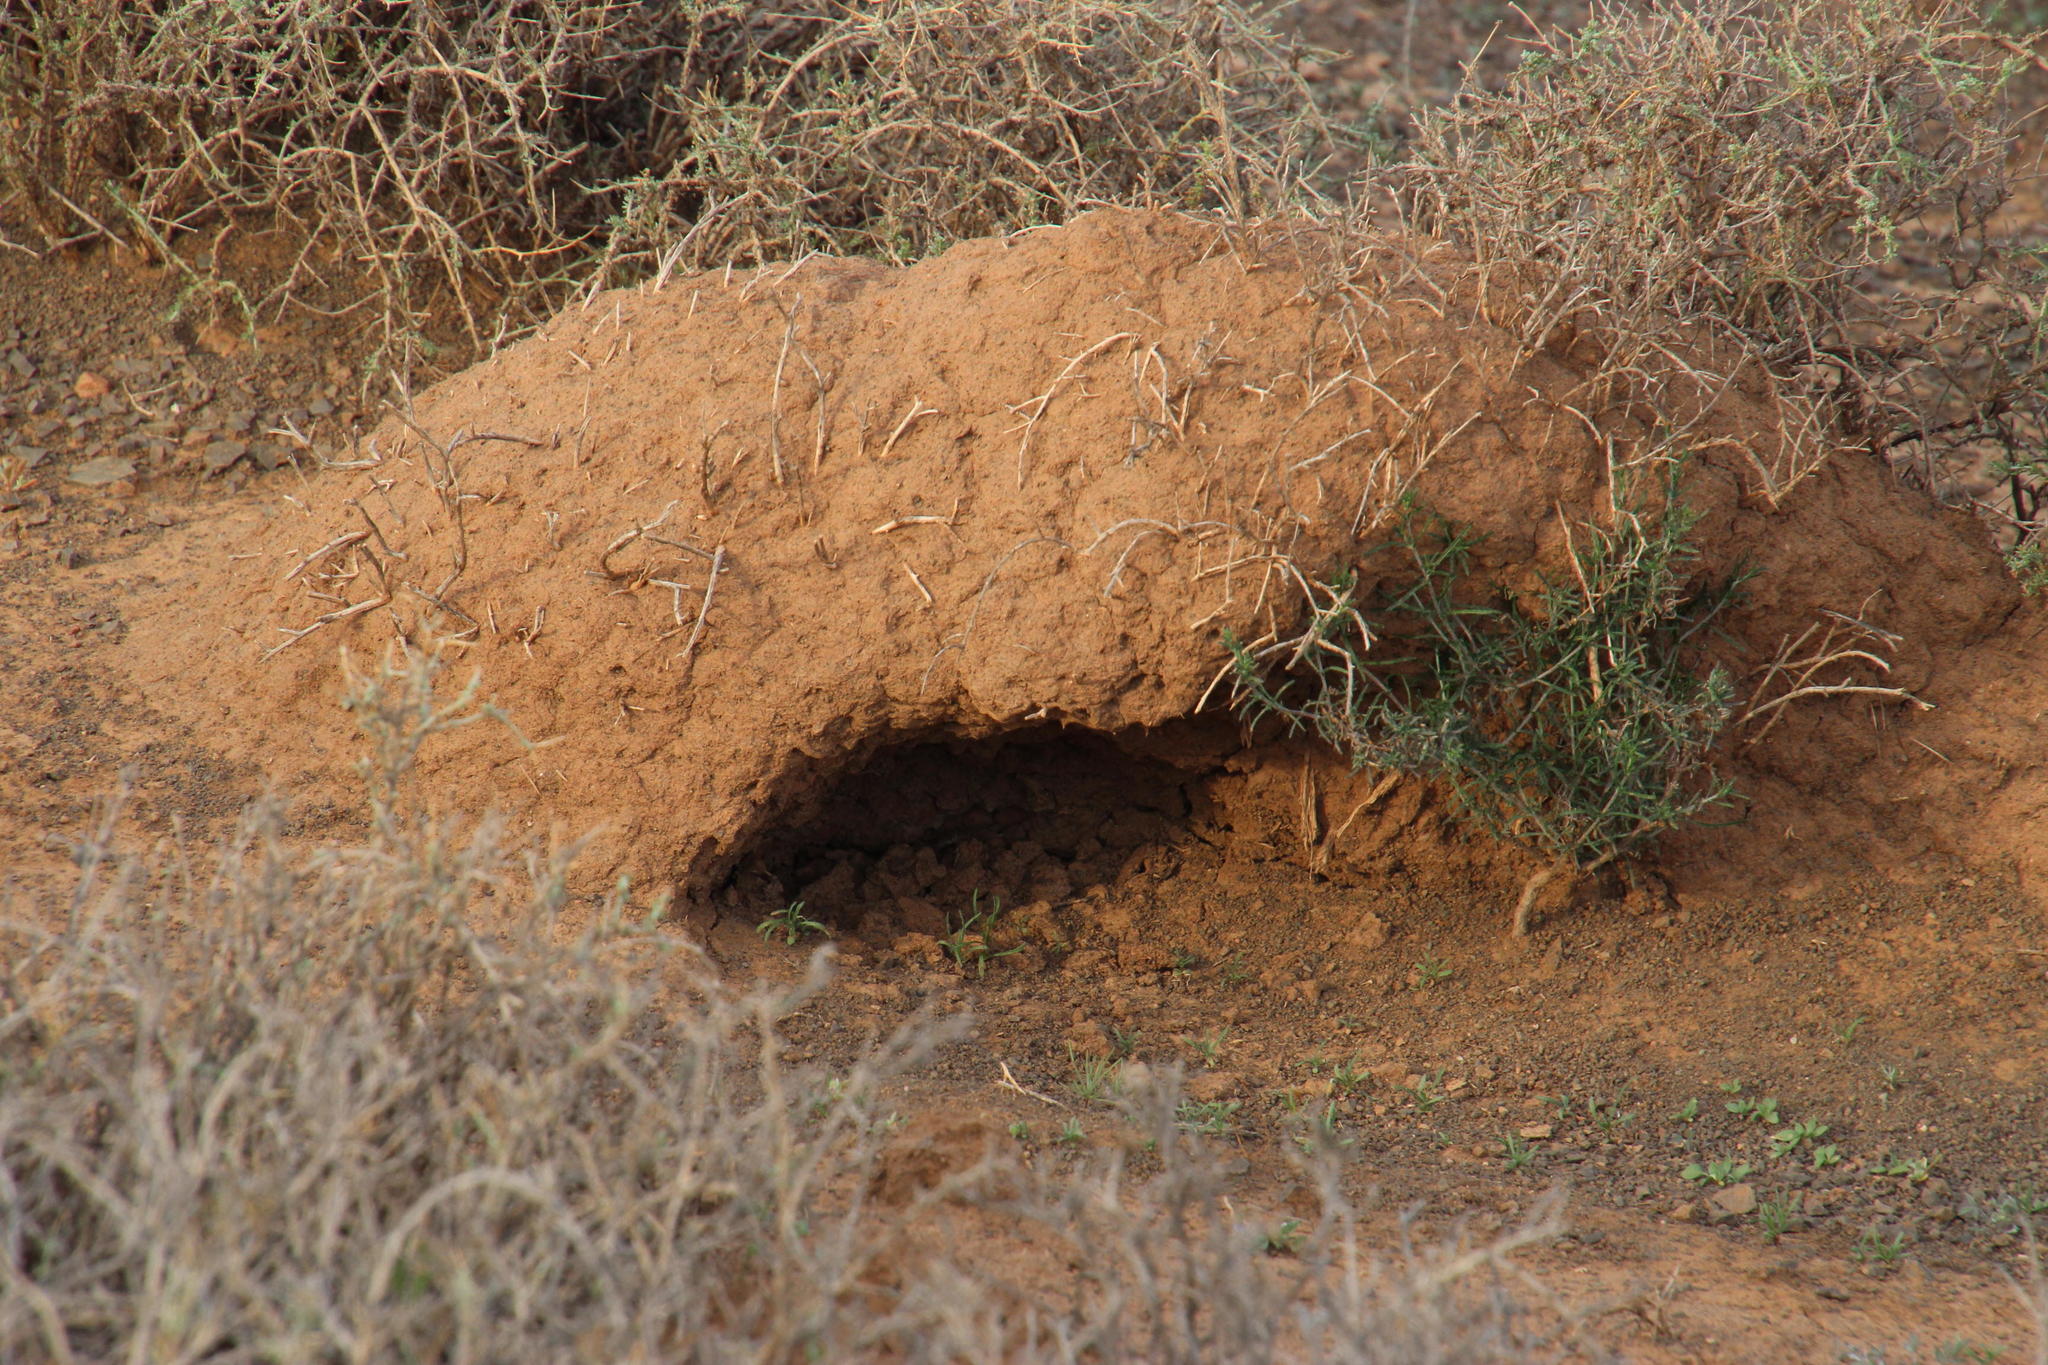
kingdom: Animalia
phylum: Chordata
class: Mammalia
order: Tubulidentata
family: Orycteropodidae
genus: Orycteropus
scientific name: Orycteropus afer
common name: Aardvark
